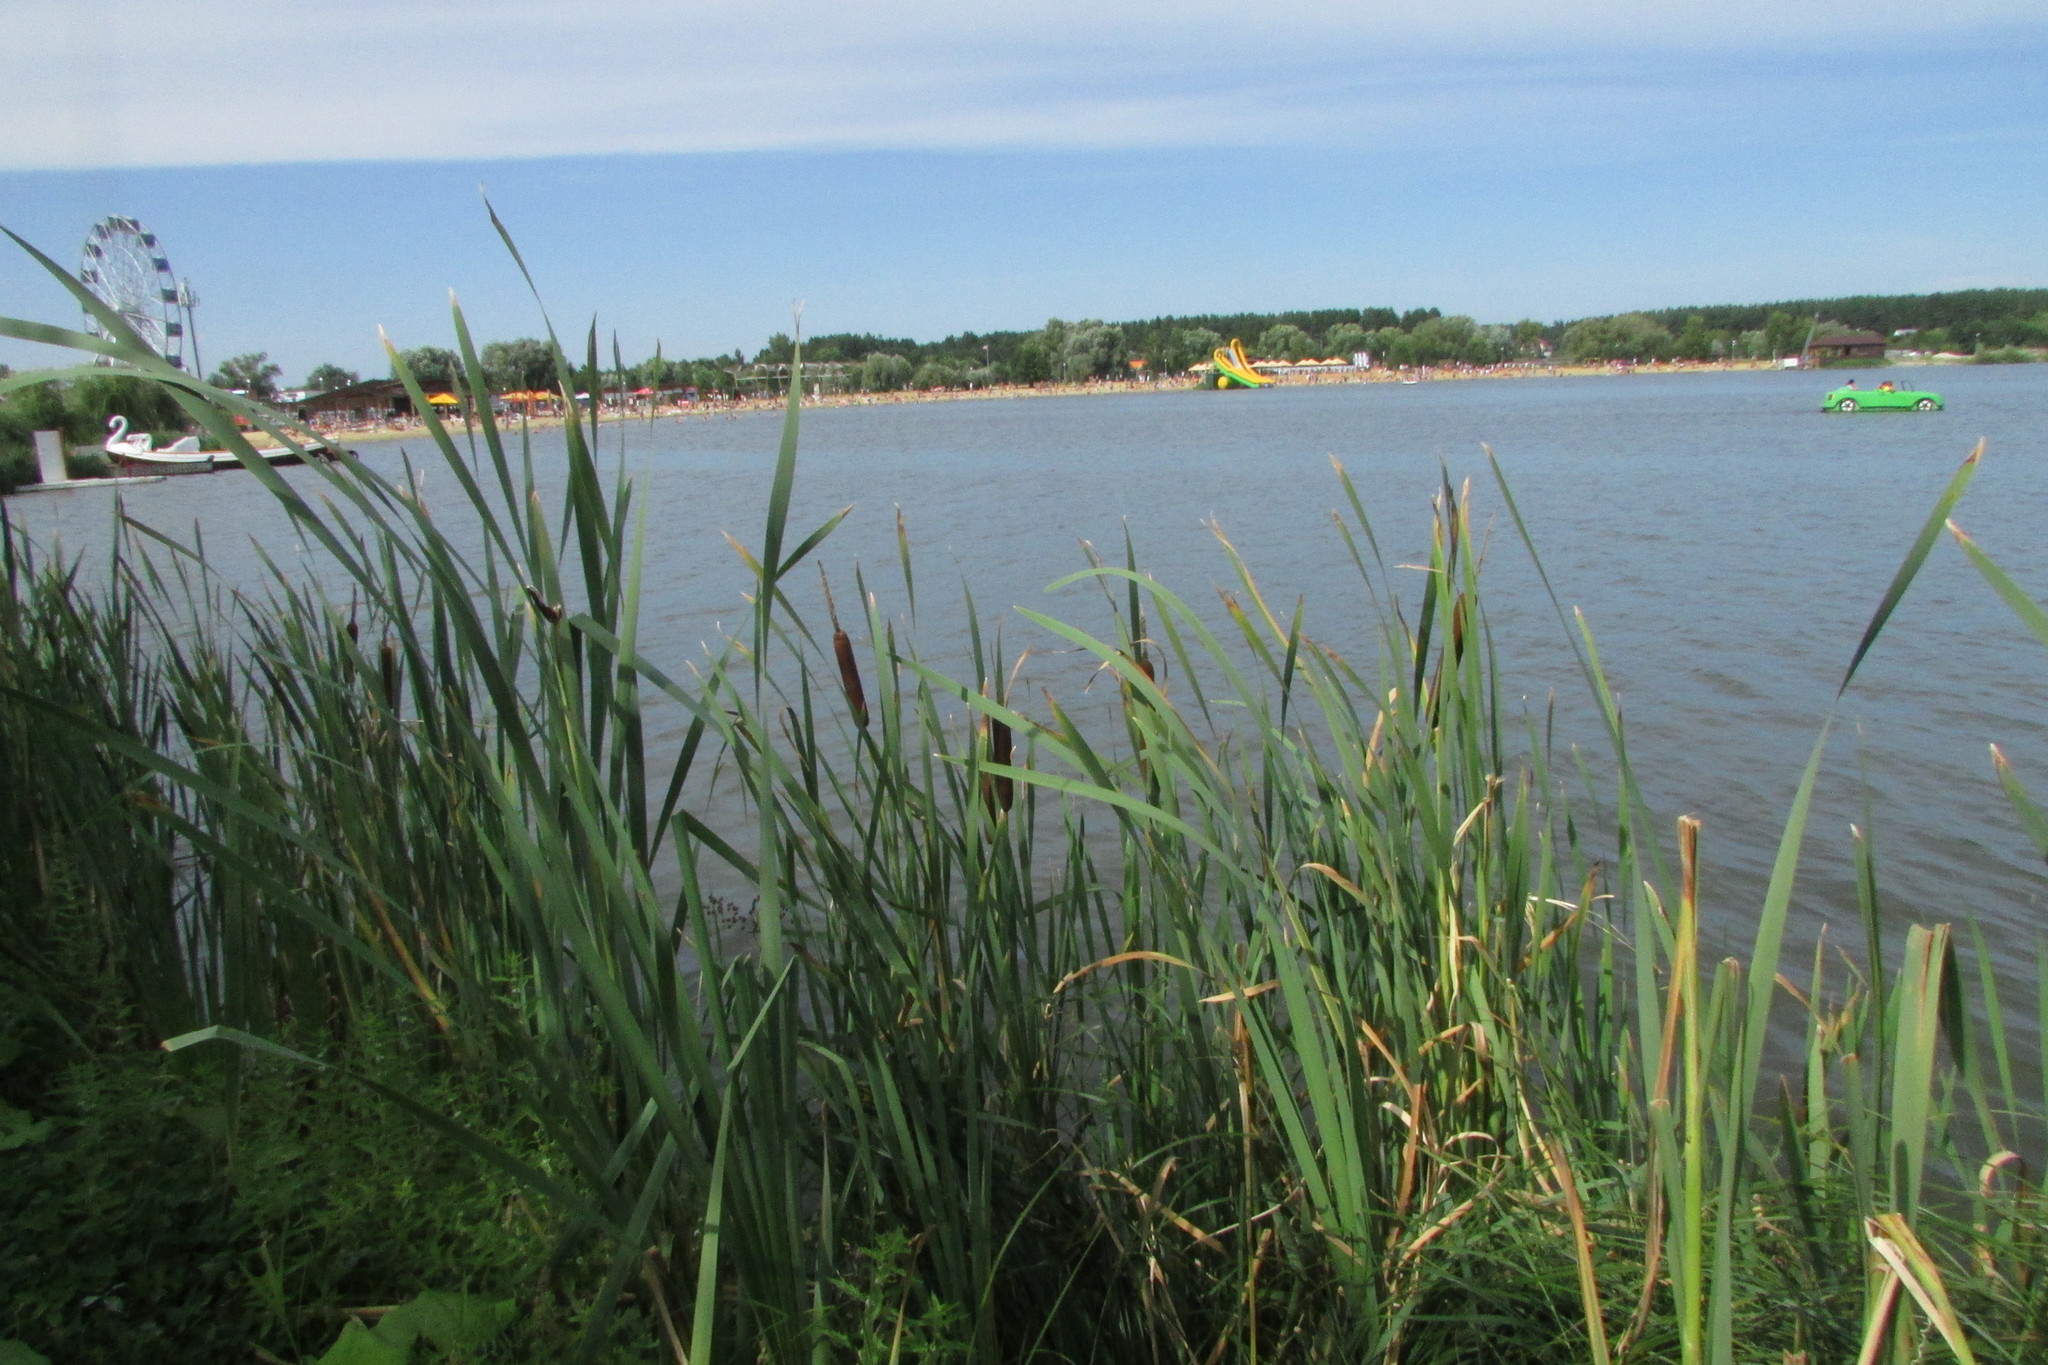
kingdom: Plantae
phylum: Tracheophyta
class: Liliopsida
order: Poales
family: Typhaceae
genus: Typha
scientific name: Typha latifolia
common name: Broadleaf cattail
